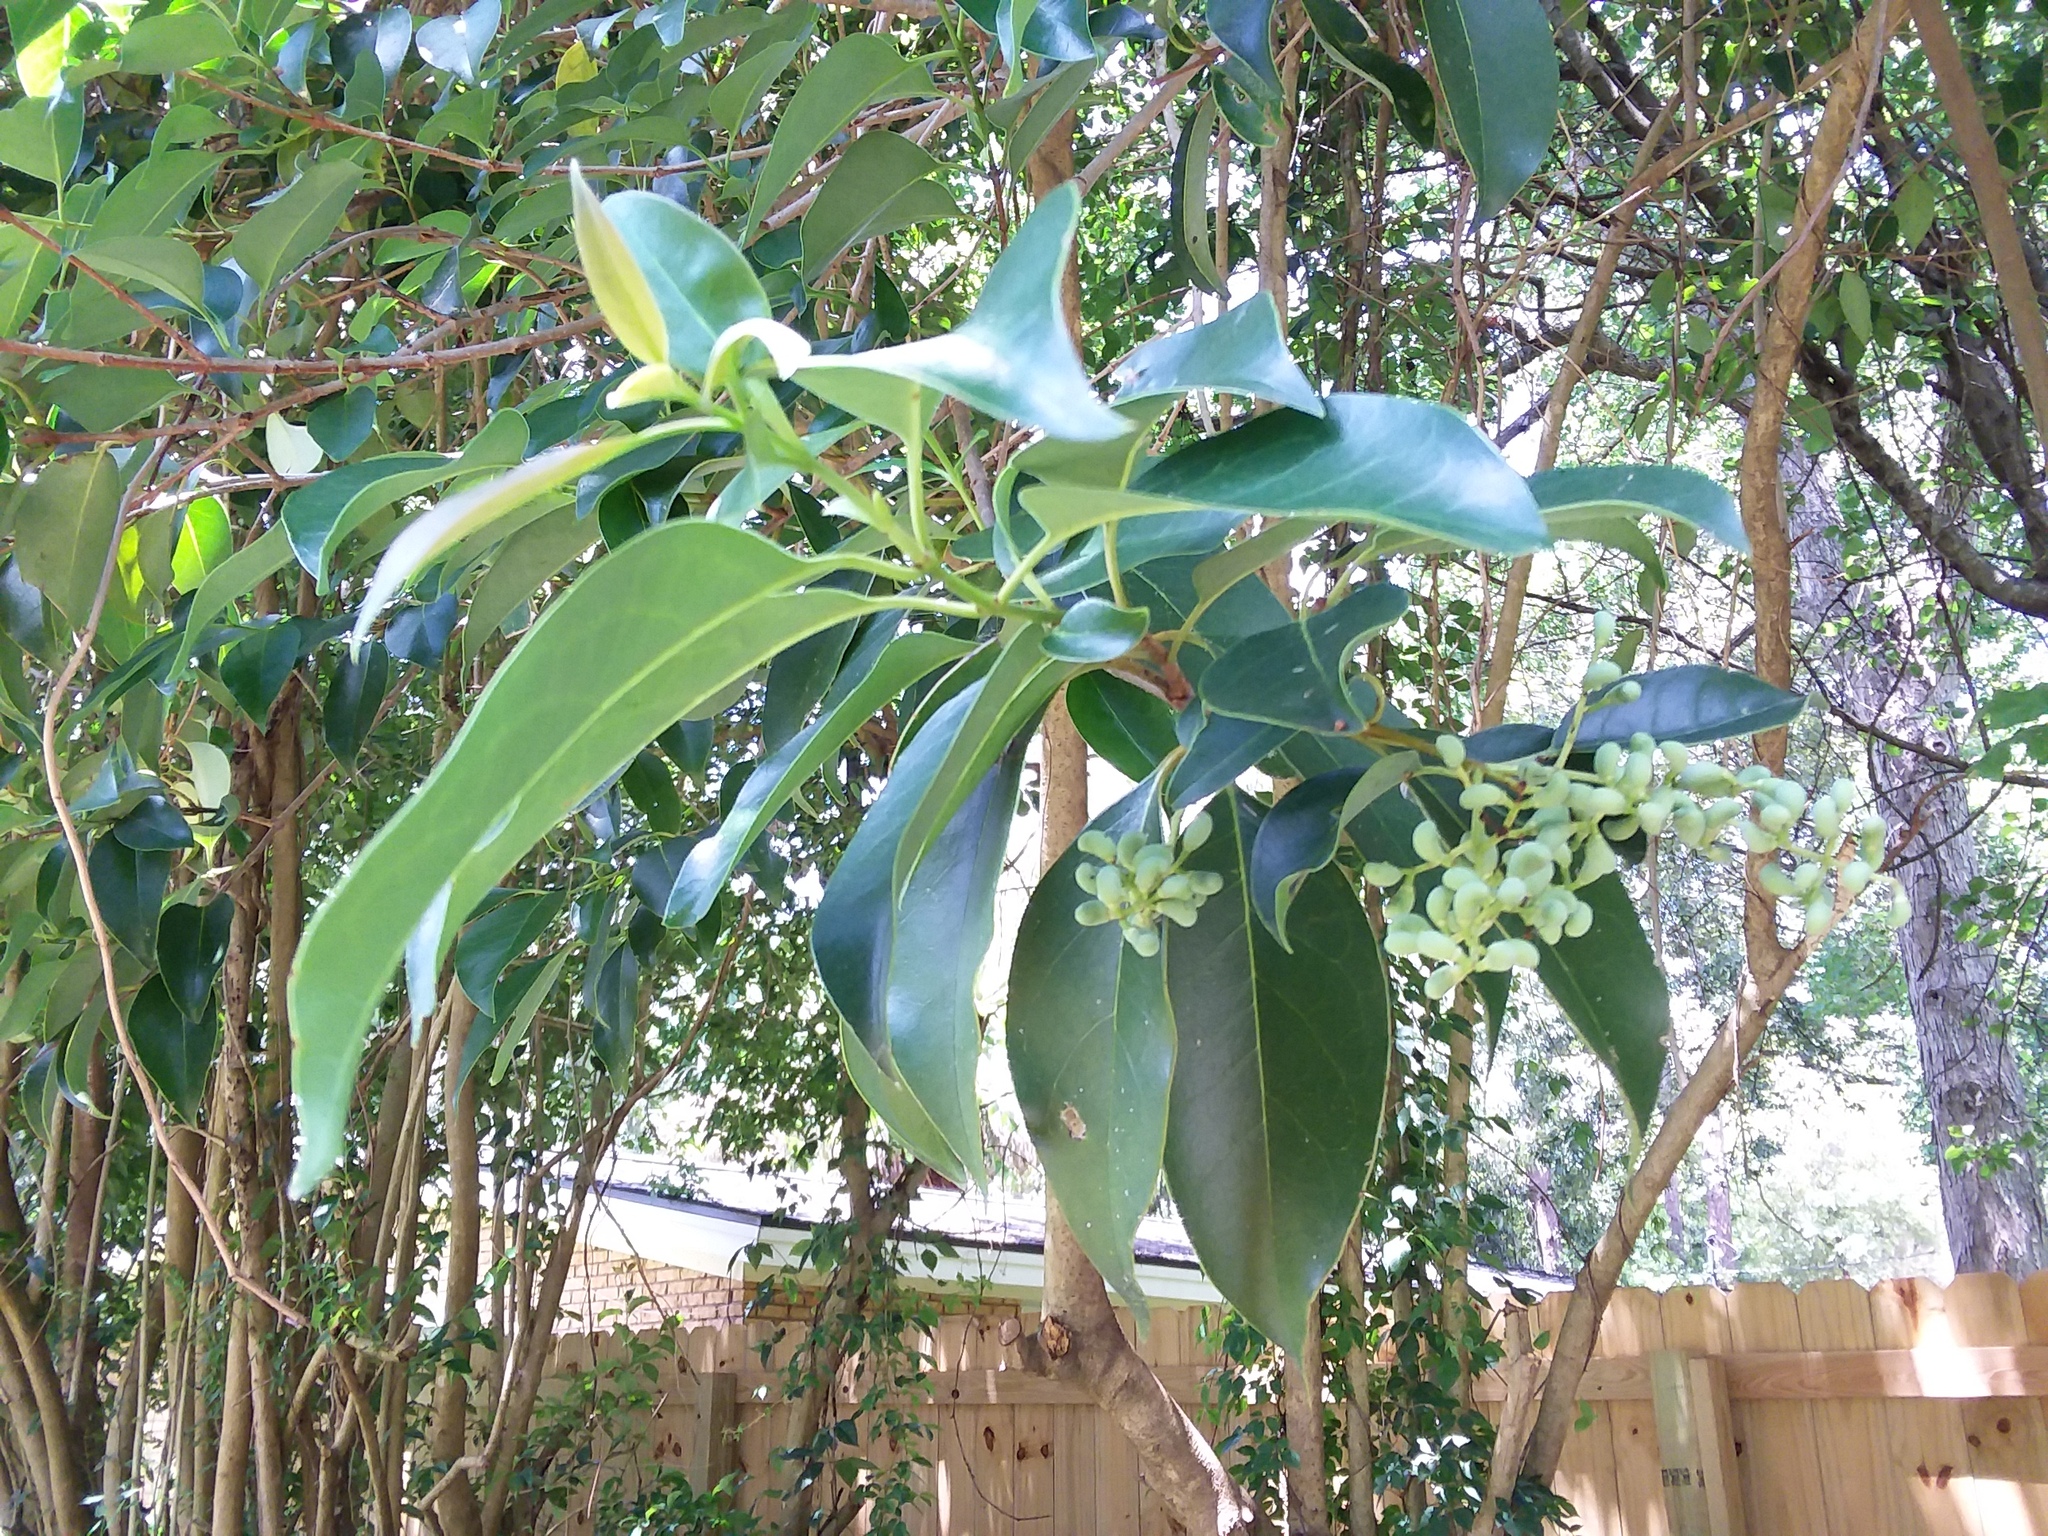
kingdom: Plantae
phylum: Tracheophyta
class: Magnoliopsida
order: Lamiales
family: Oleaceae
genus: Ligustrum
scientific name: Ligustrum lucidum
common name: Glossy privet
